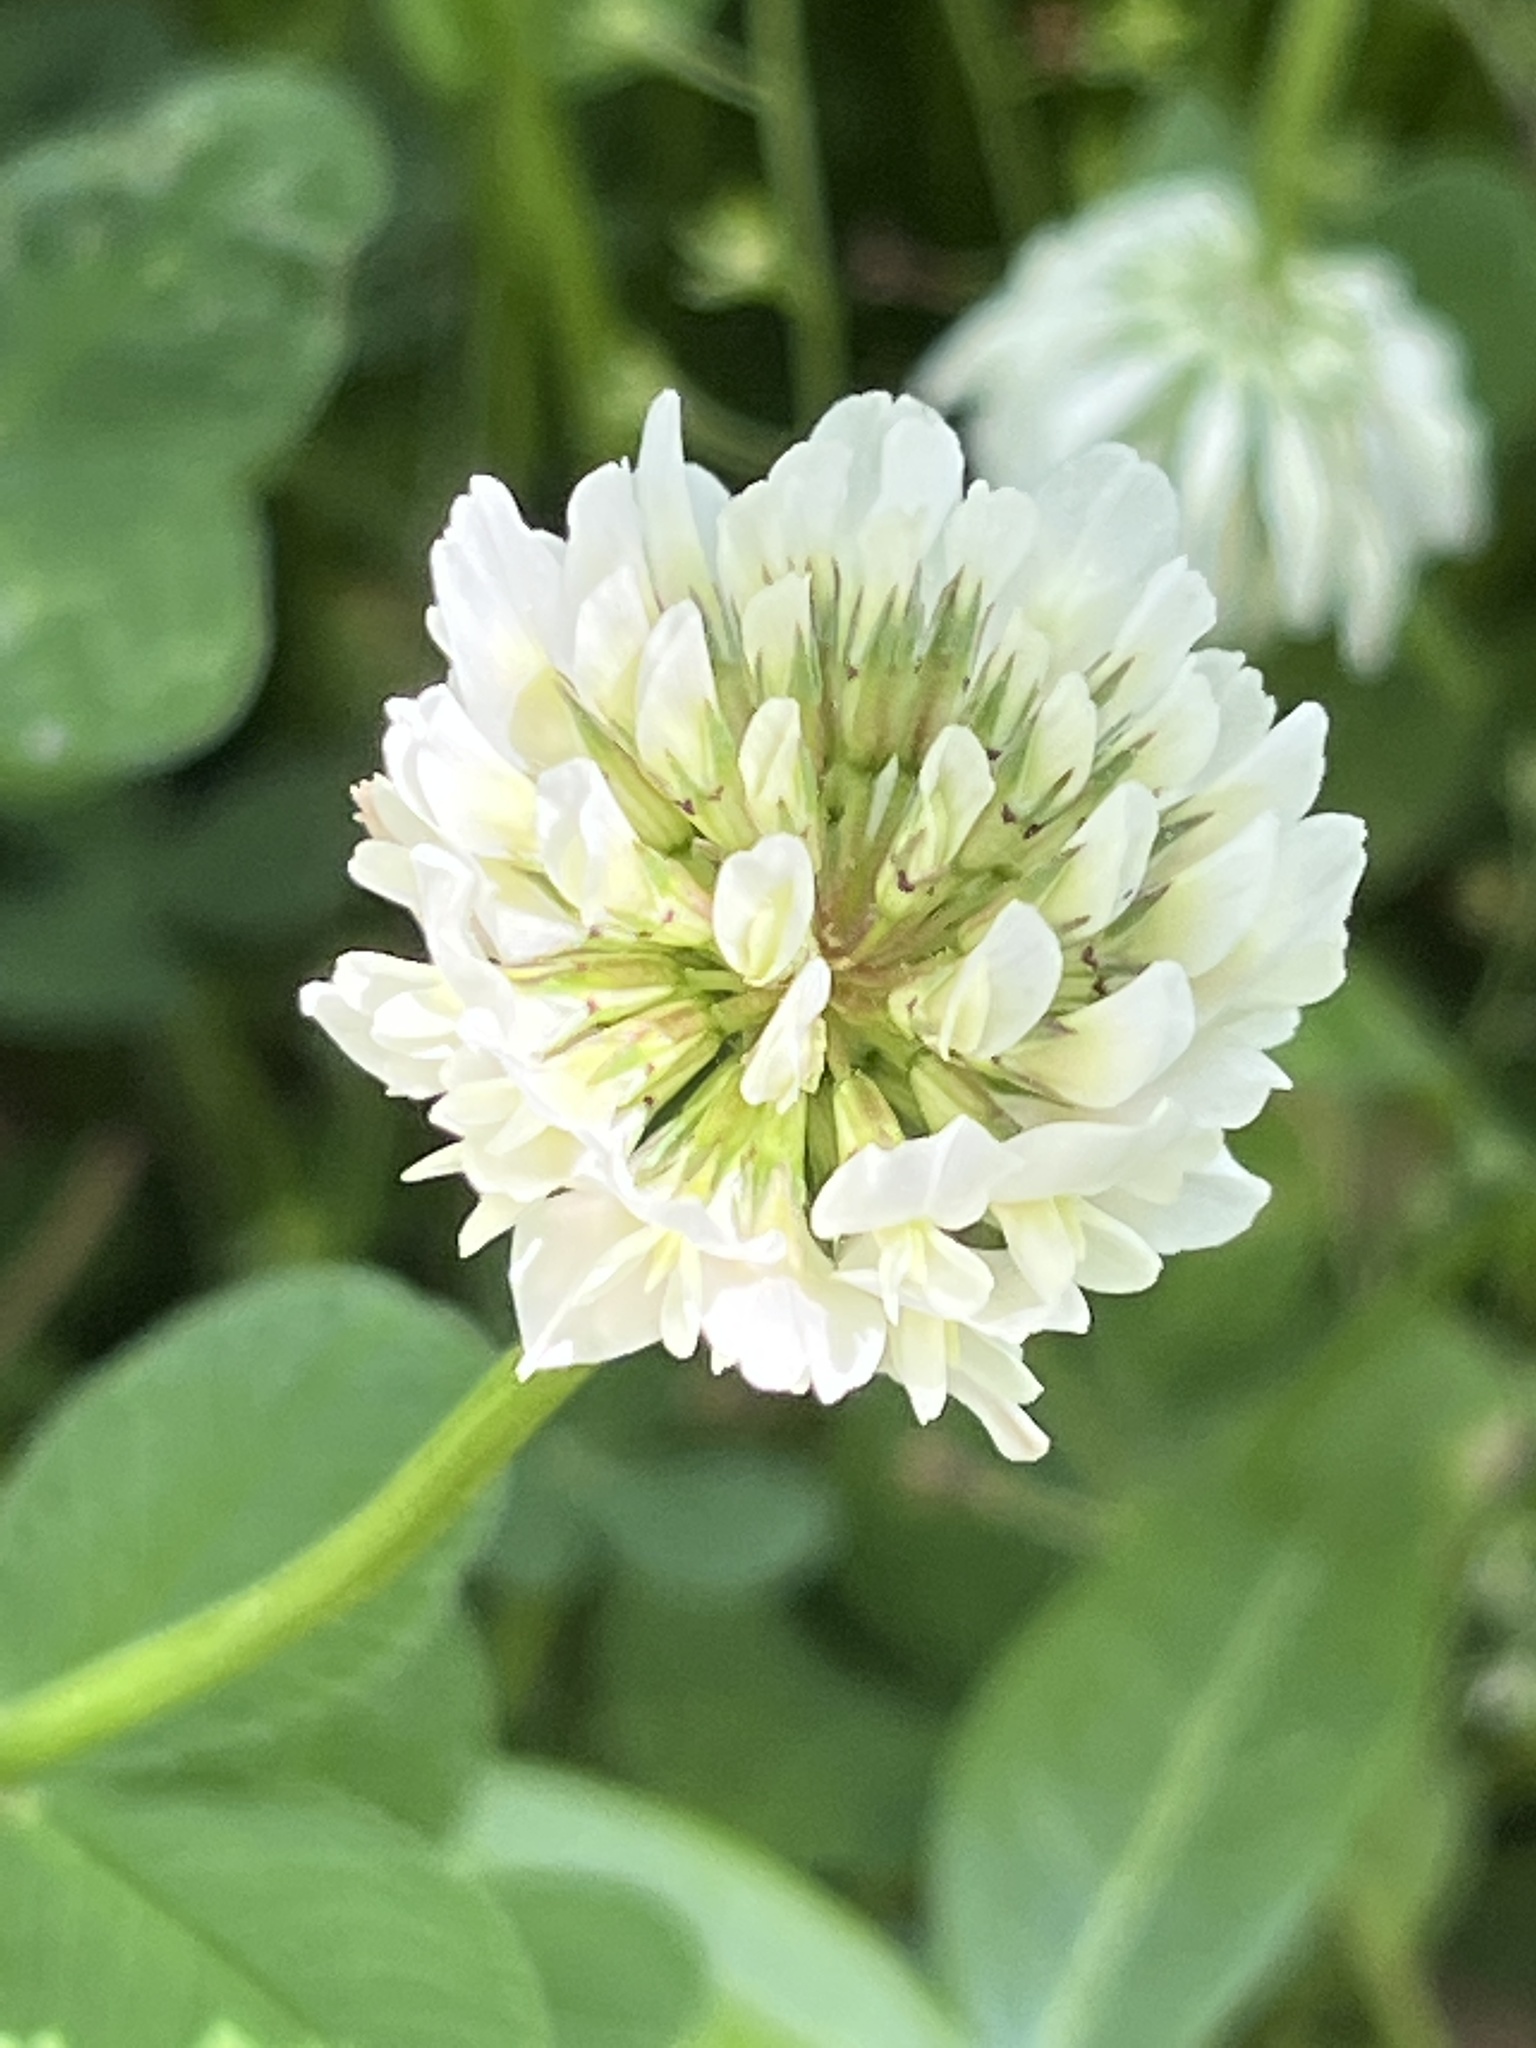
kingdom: Plantae
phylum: Tracheophyta
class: Magnoliopsida
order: Fabales
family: Fabaceae
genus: Trifolium
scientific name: Trifolium repens
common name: White clover
